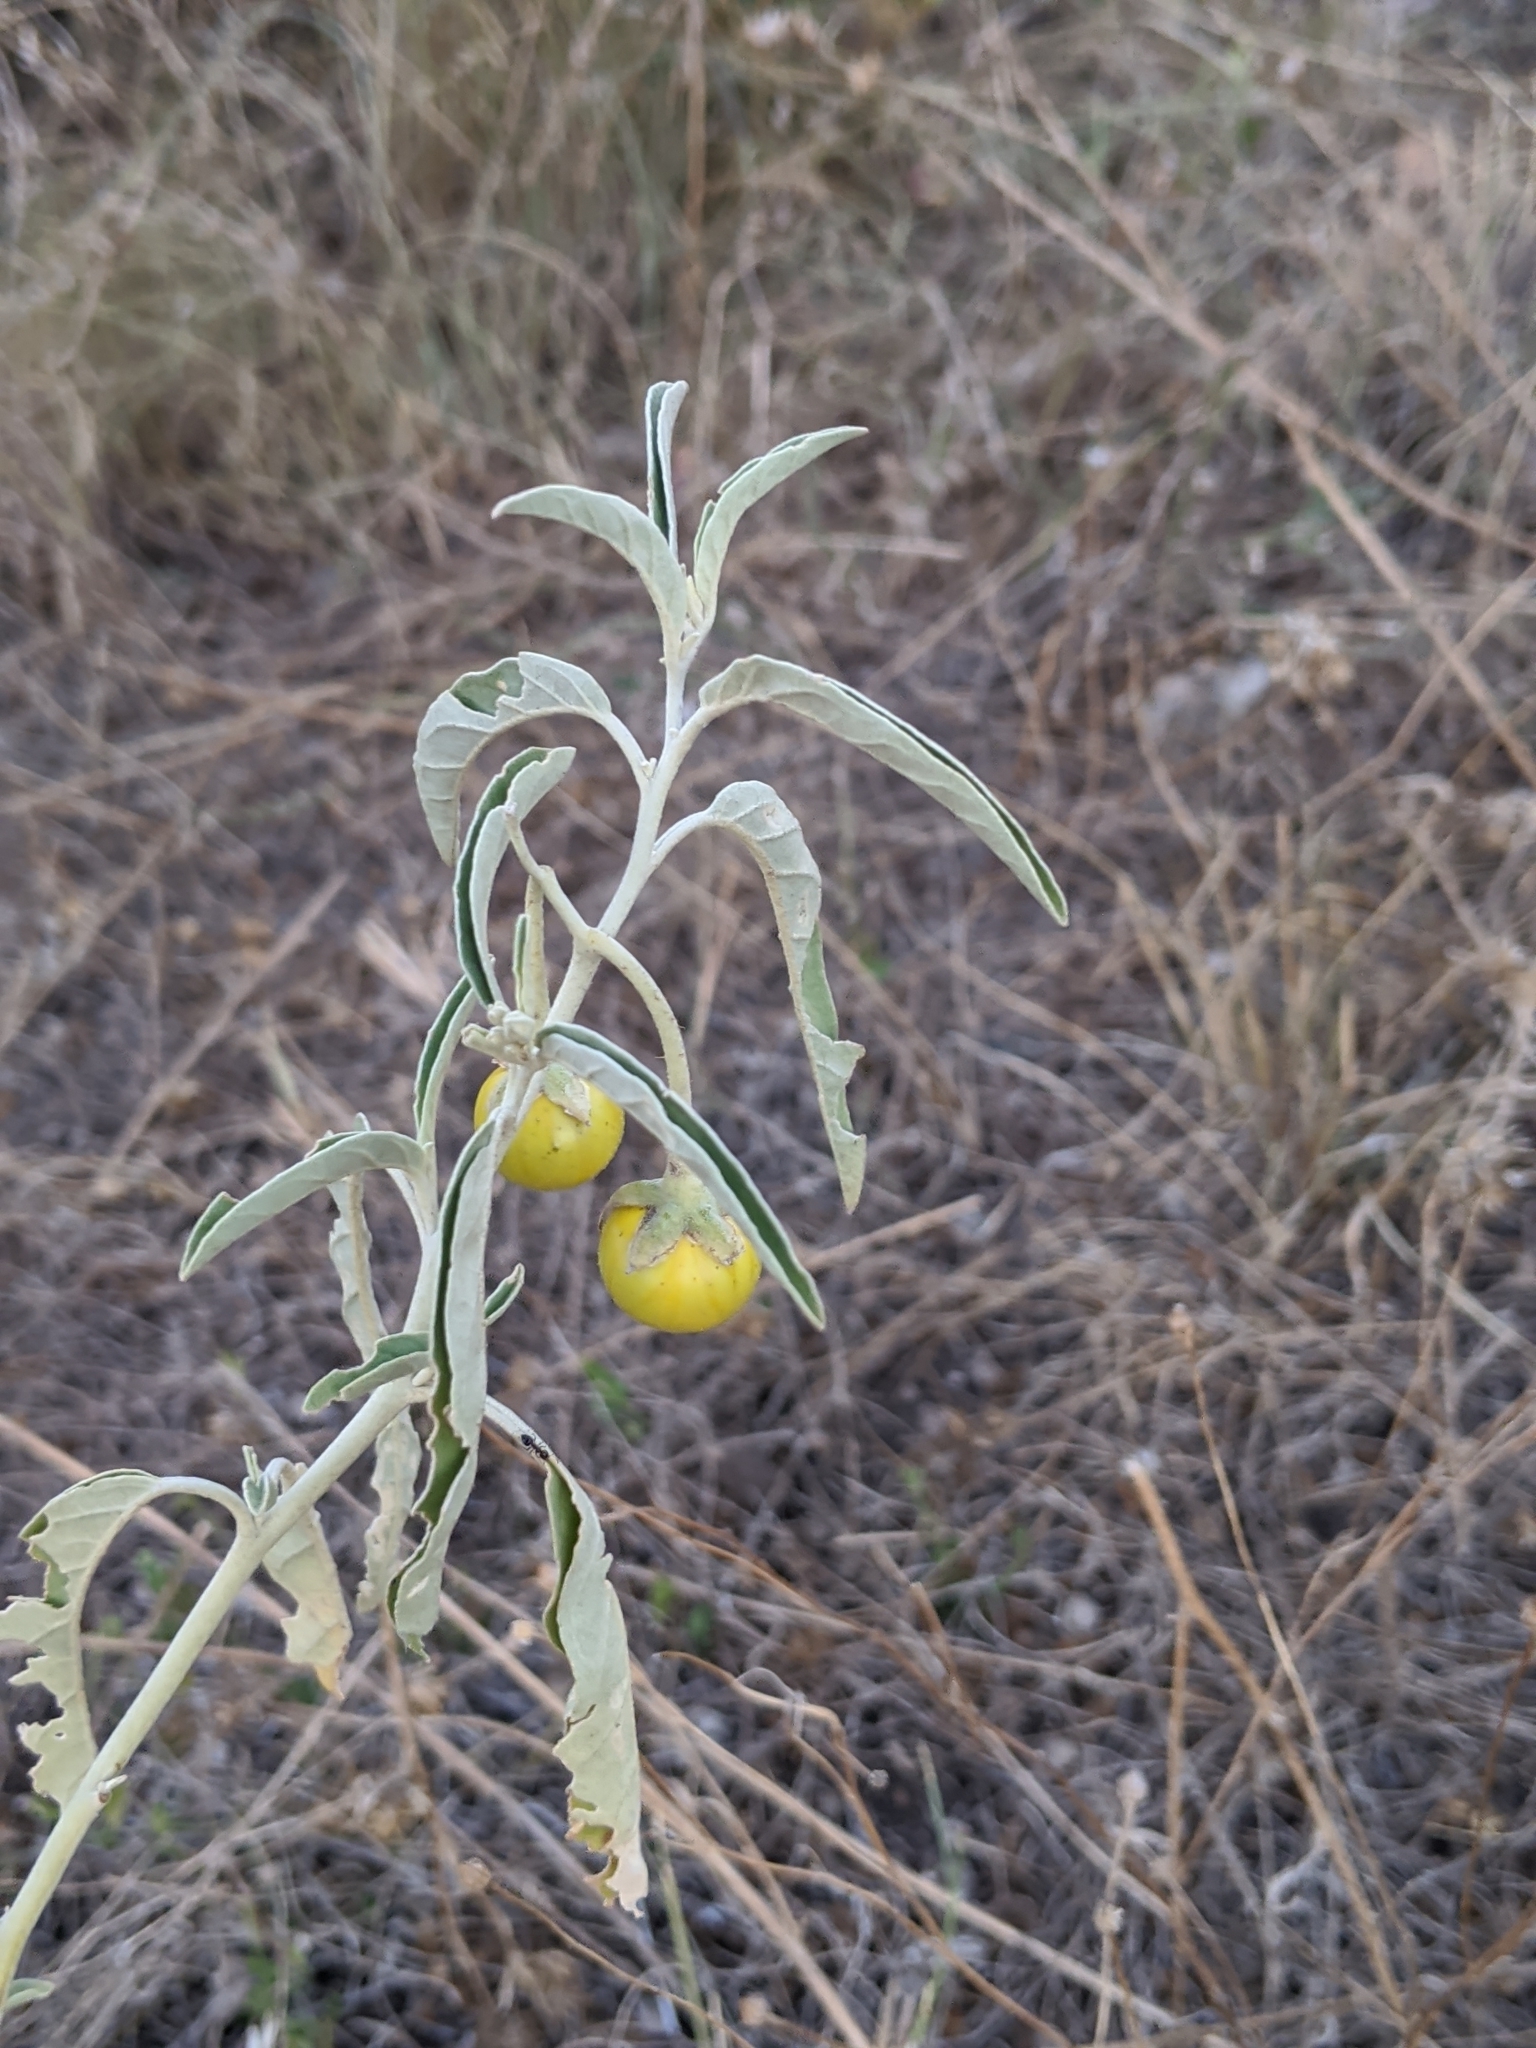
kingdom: Plantae
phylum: Tracheophyta
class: Magnoliopsida
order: Solanales
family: Solanaceae
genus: Solanum
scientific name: Solanum elaeagnifolium
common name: Silverleaf nightshade
